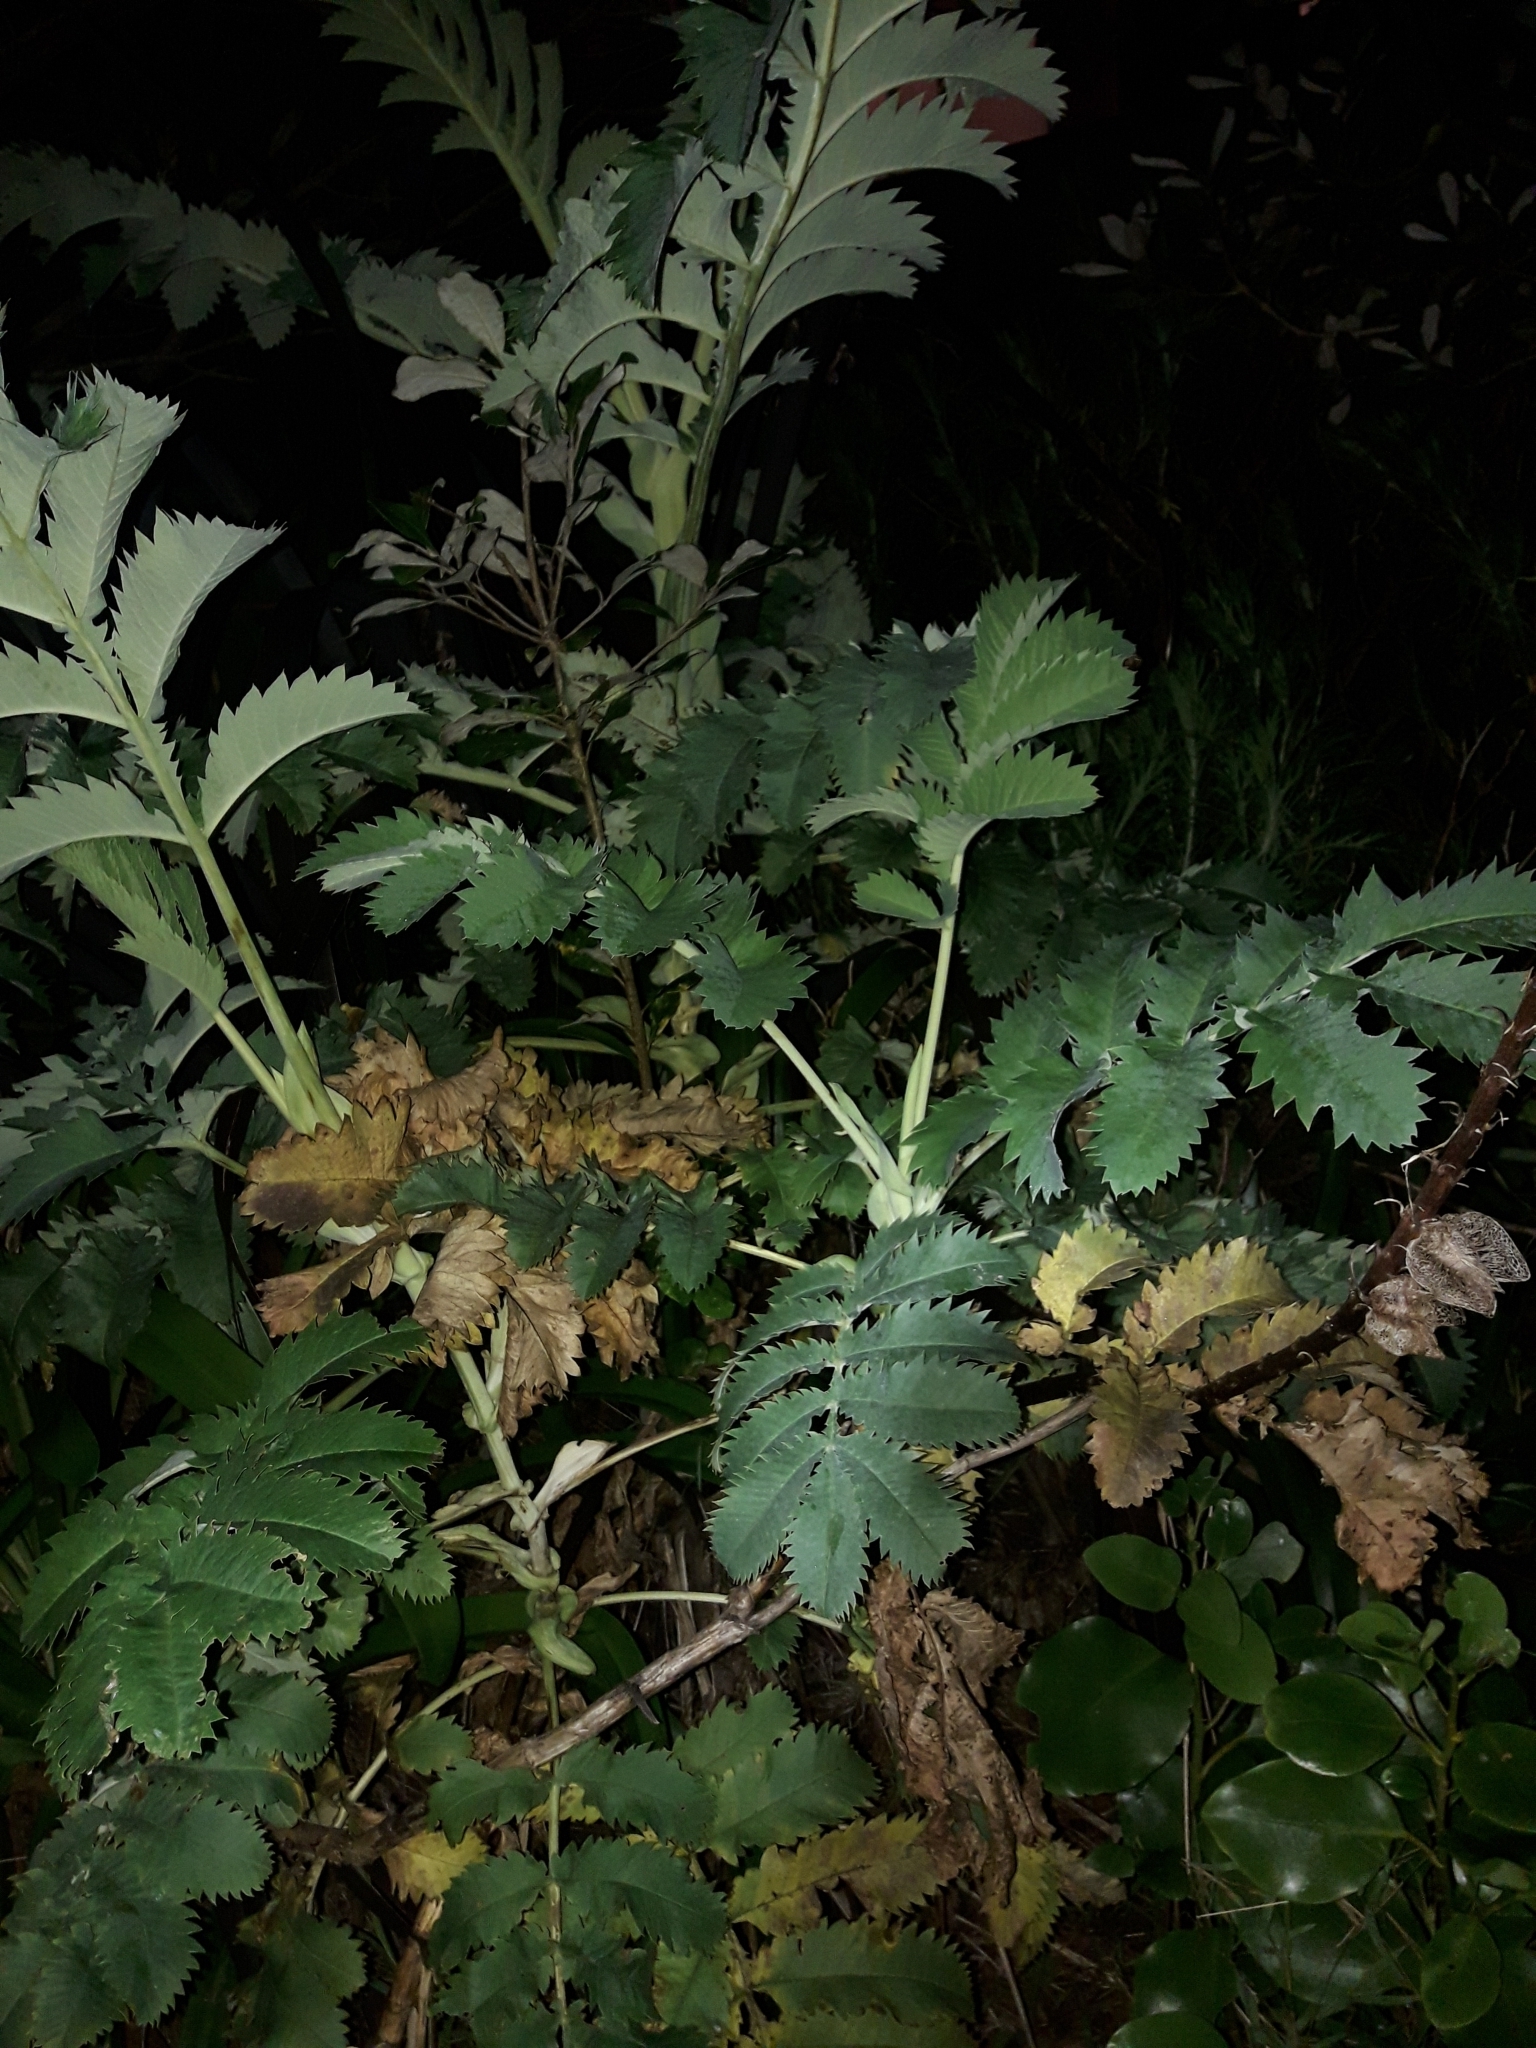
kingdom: Plantae
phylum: Tracheophyta
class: Magnoliopsida
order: Geraniales
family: Melianthaceae
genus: Melianthus
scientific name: Melianthus major
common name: Honey-flower
